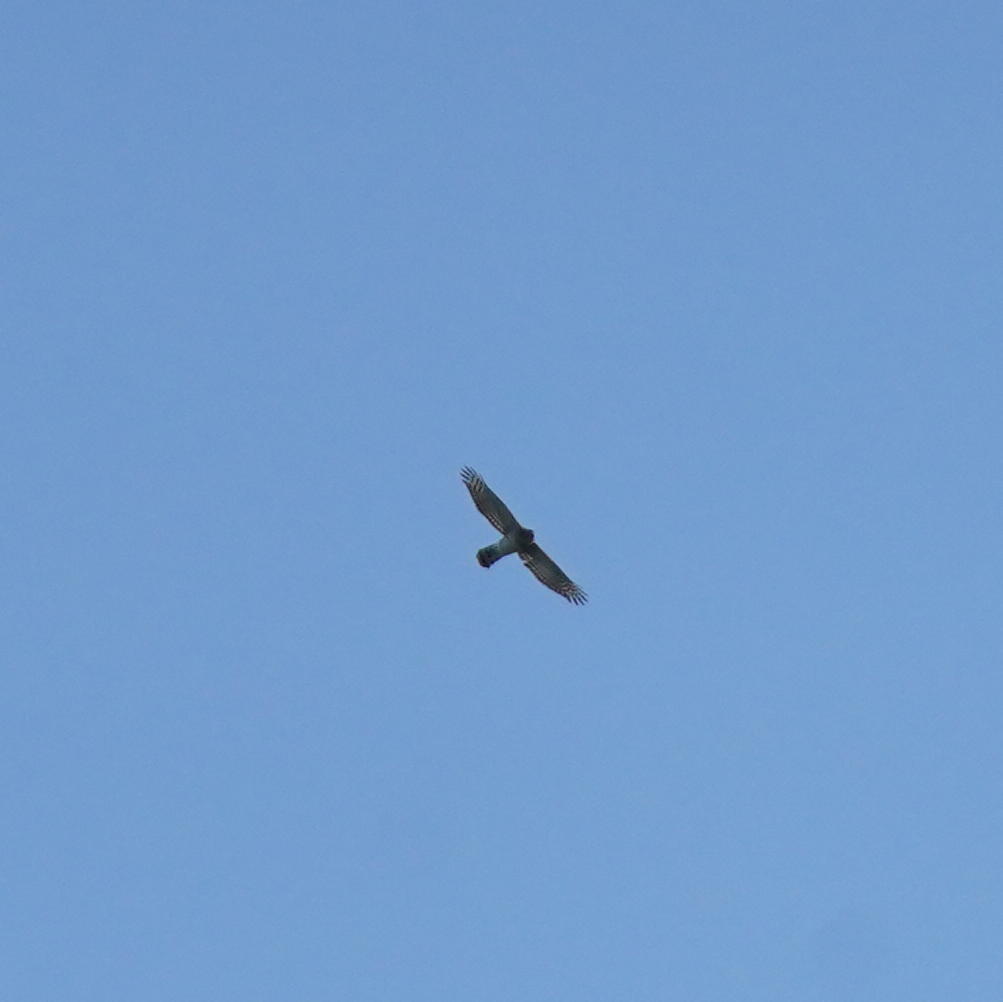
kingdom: Animalia
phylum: Chordata
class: Aves
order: Accipitriformes
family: Accipitridae
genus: Accipiter
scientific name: Accipiter cooperii
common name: Cooper's hawk
